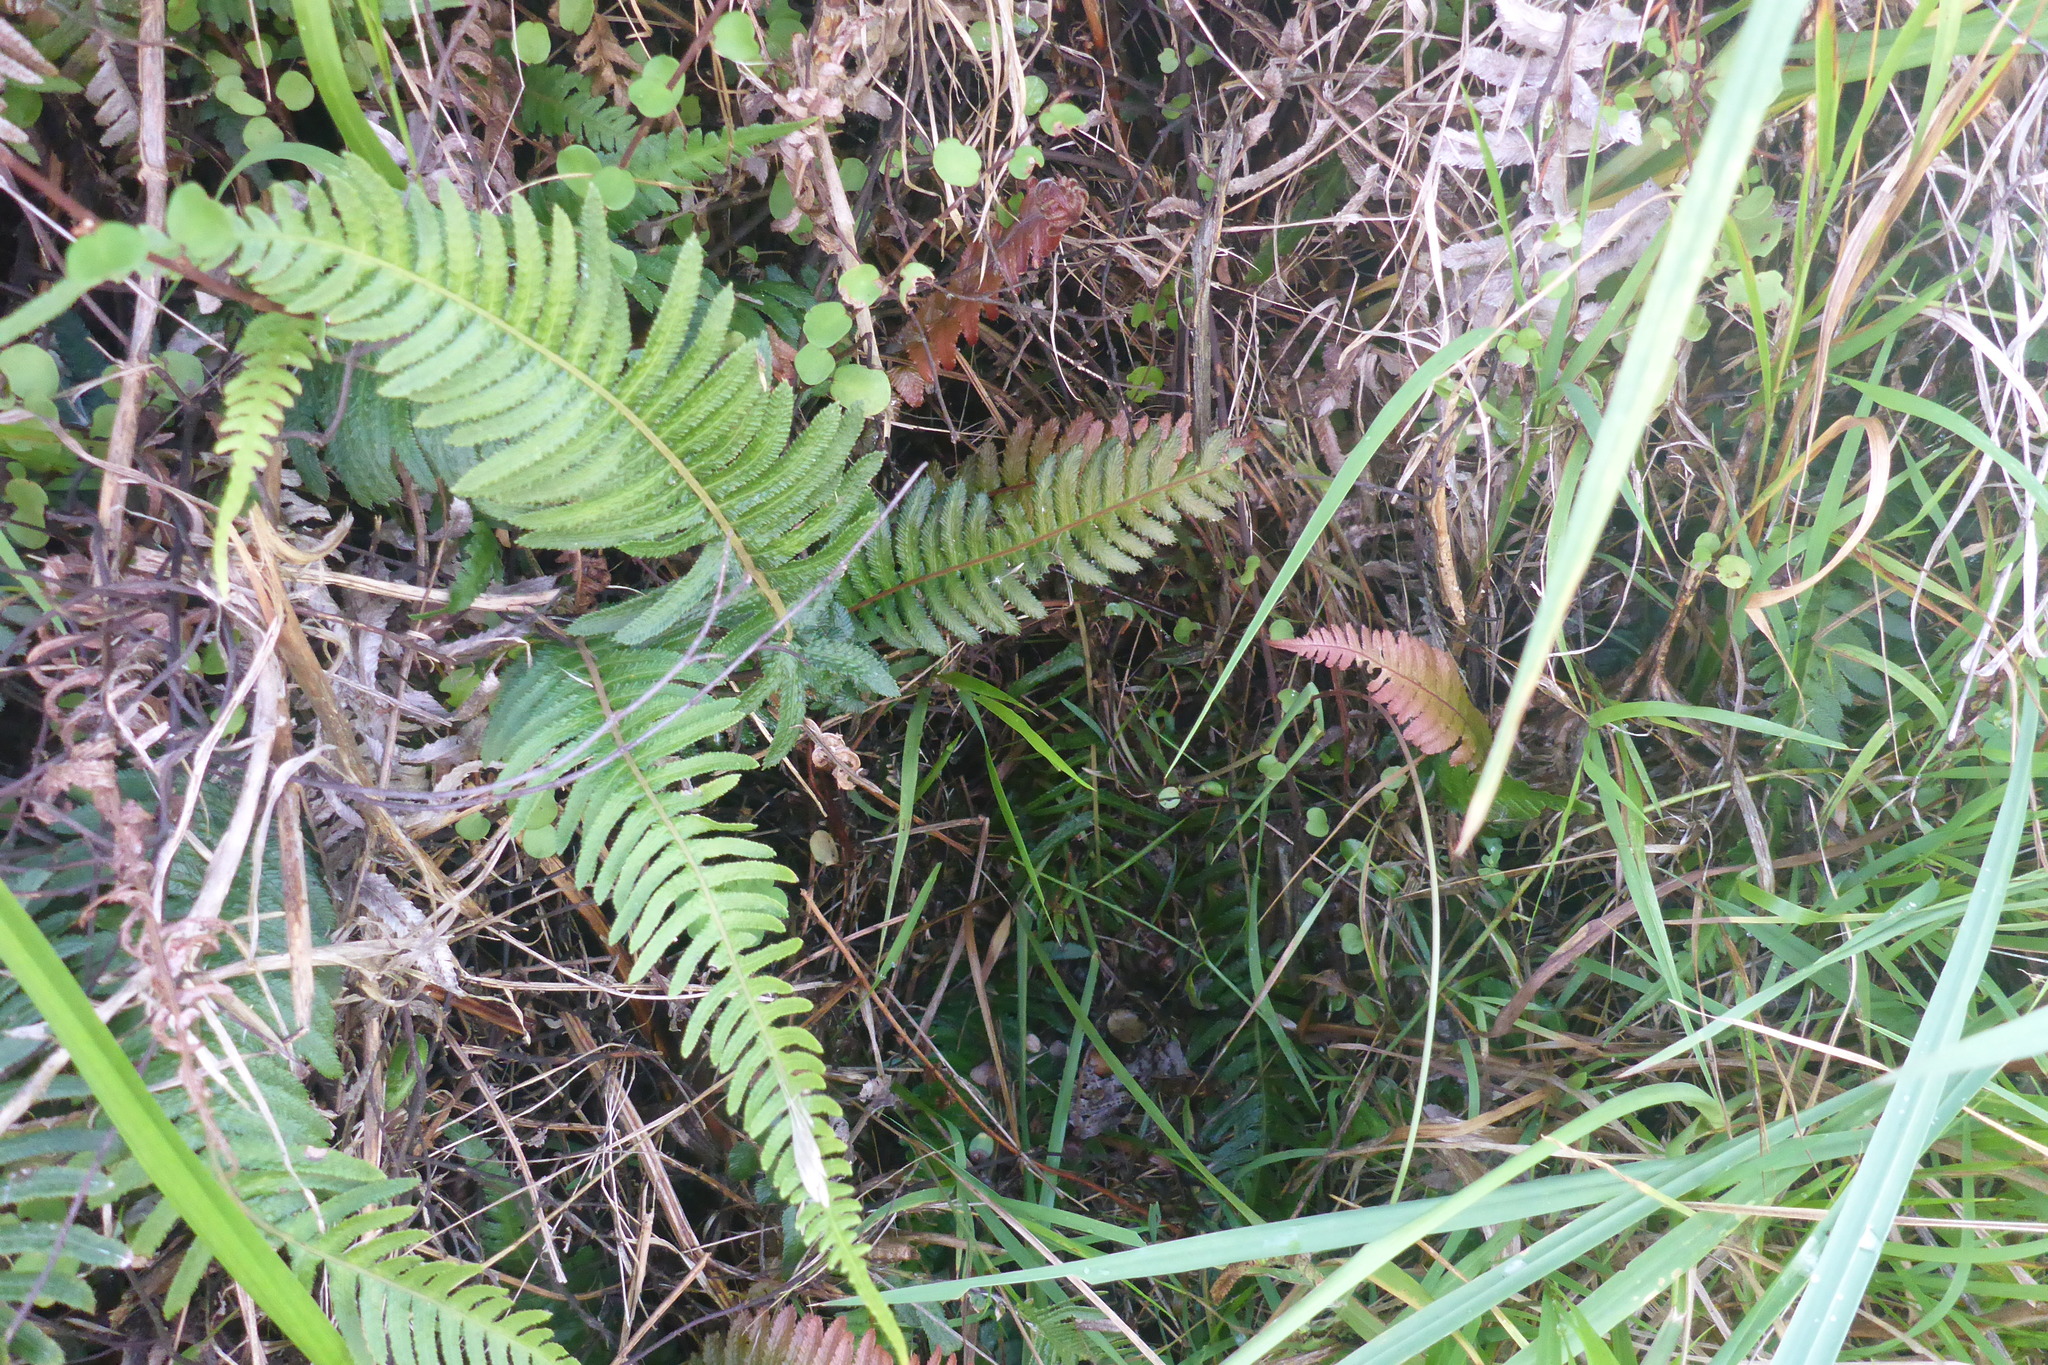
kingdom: Plantae
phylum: Tracheophyta
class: Polypodiopsida
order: Polypodiales
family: Blechnaceae
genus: Doodia
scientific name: Doodia australis
